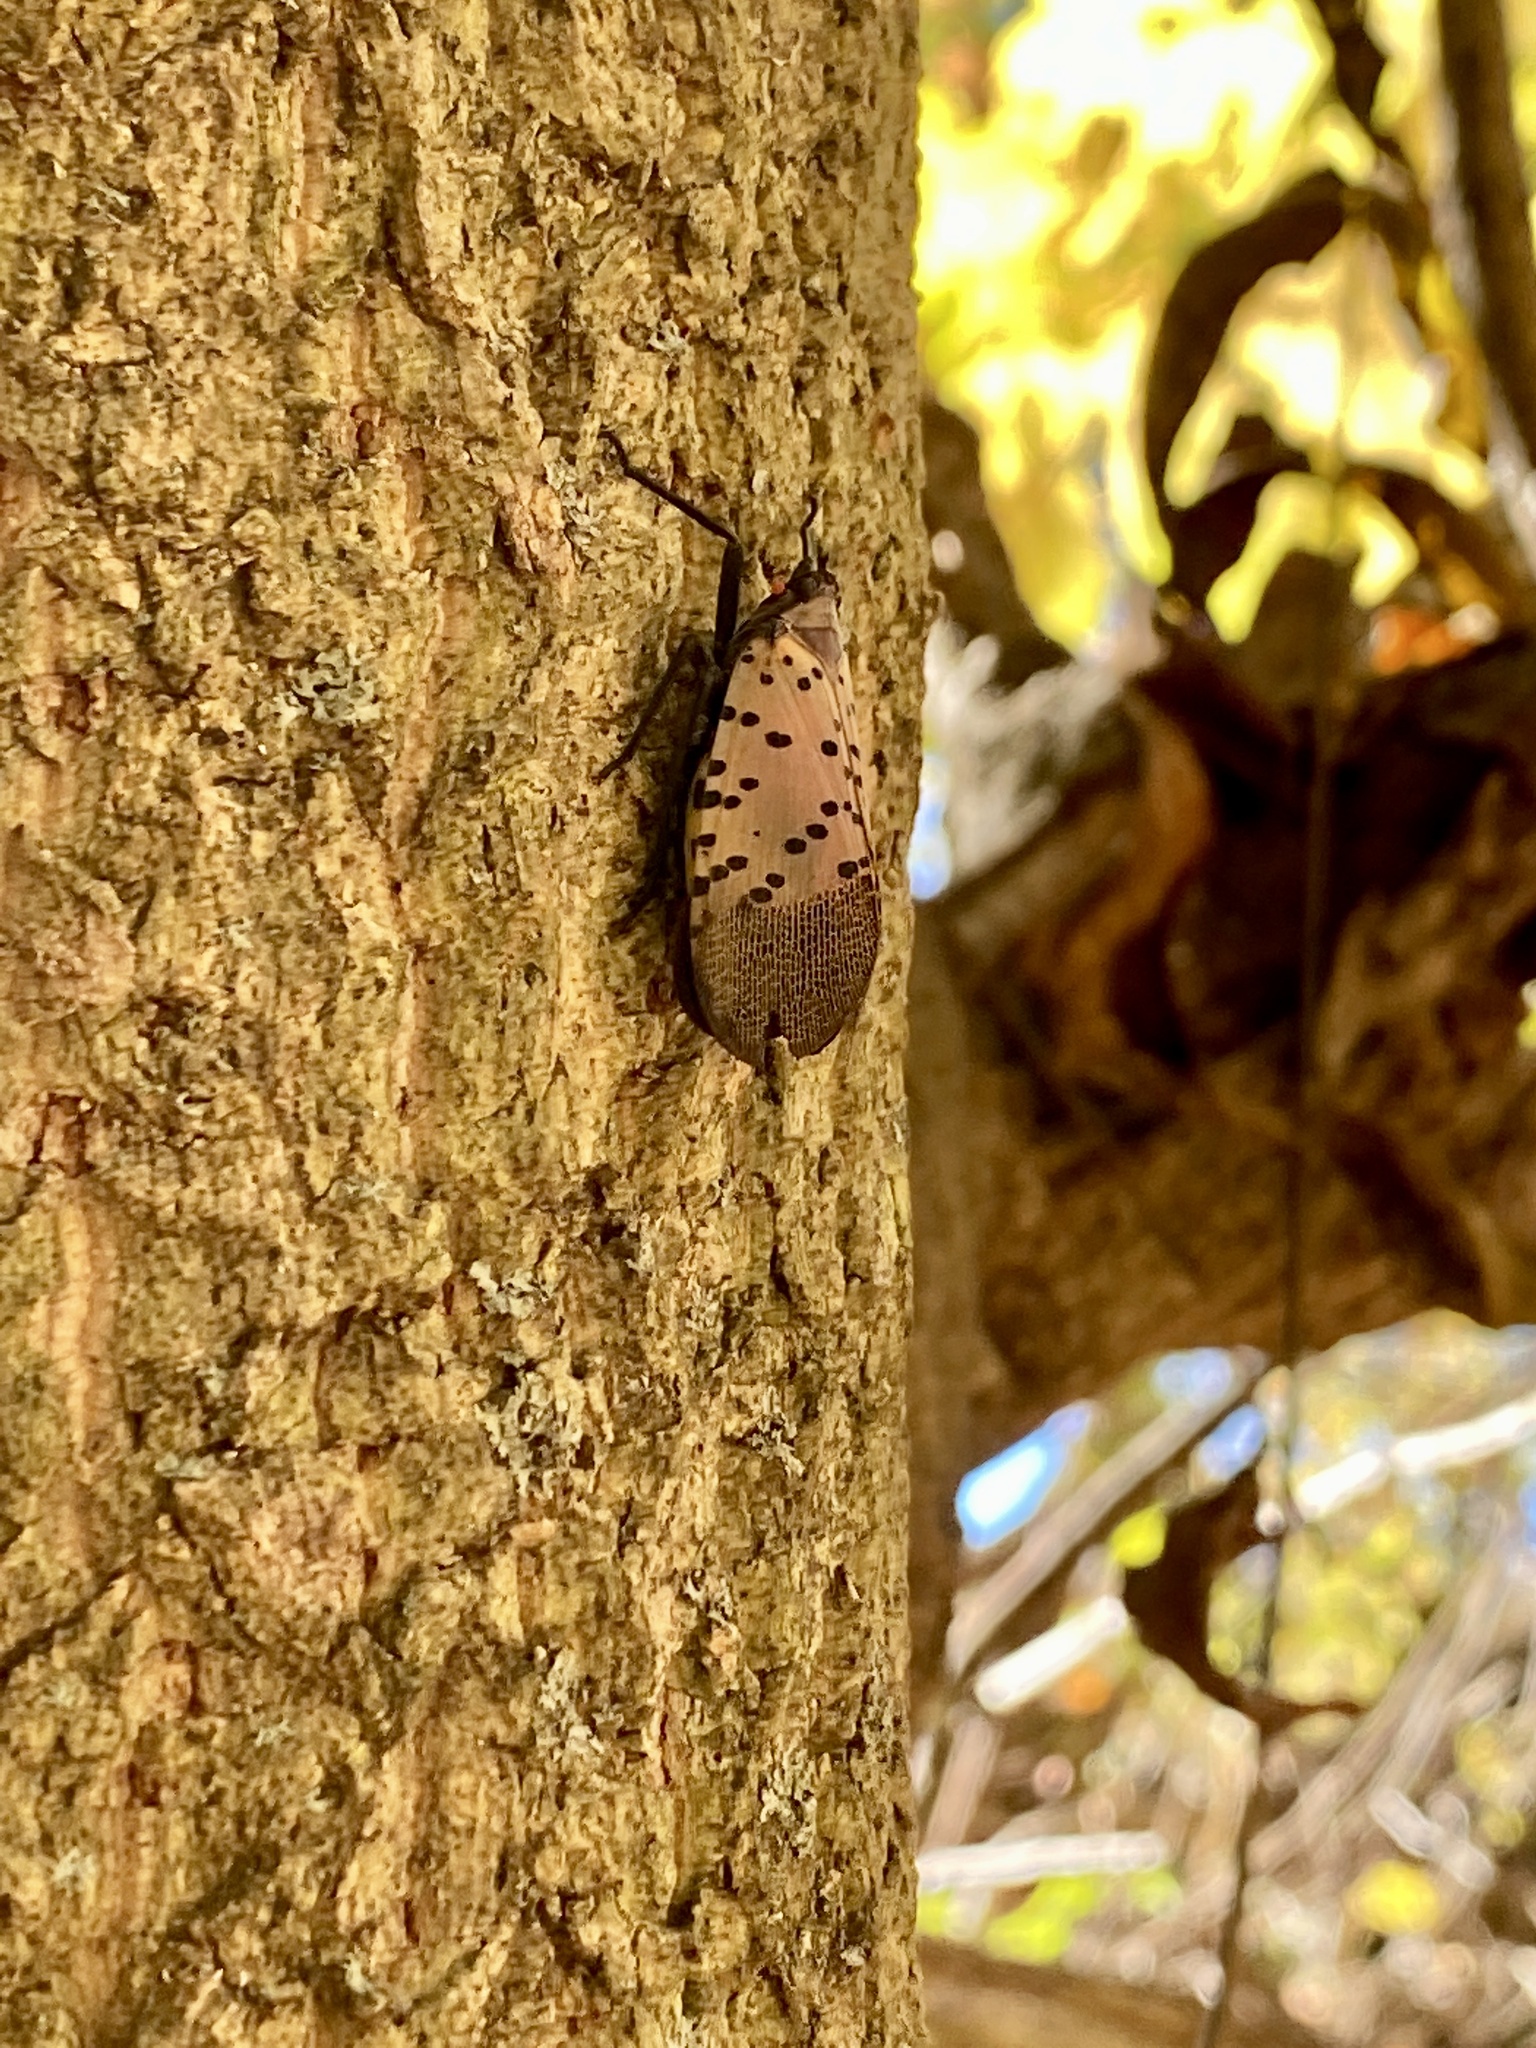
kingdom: Animalia
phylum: Arthropoda
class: Insecta
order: Hemiptera
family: Fulgoridae
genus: Lycorma
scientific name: Lycorma delicatula
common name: Spotted lanternfly
